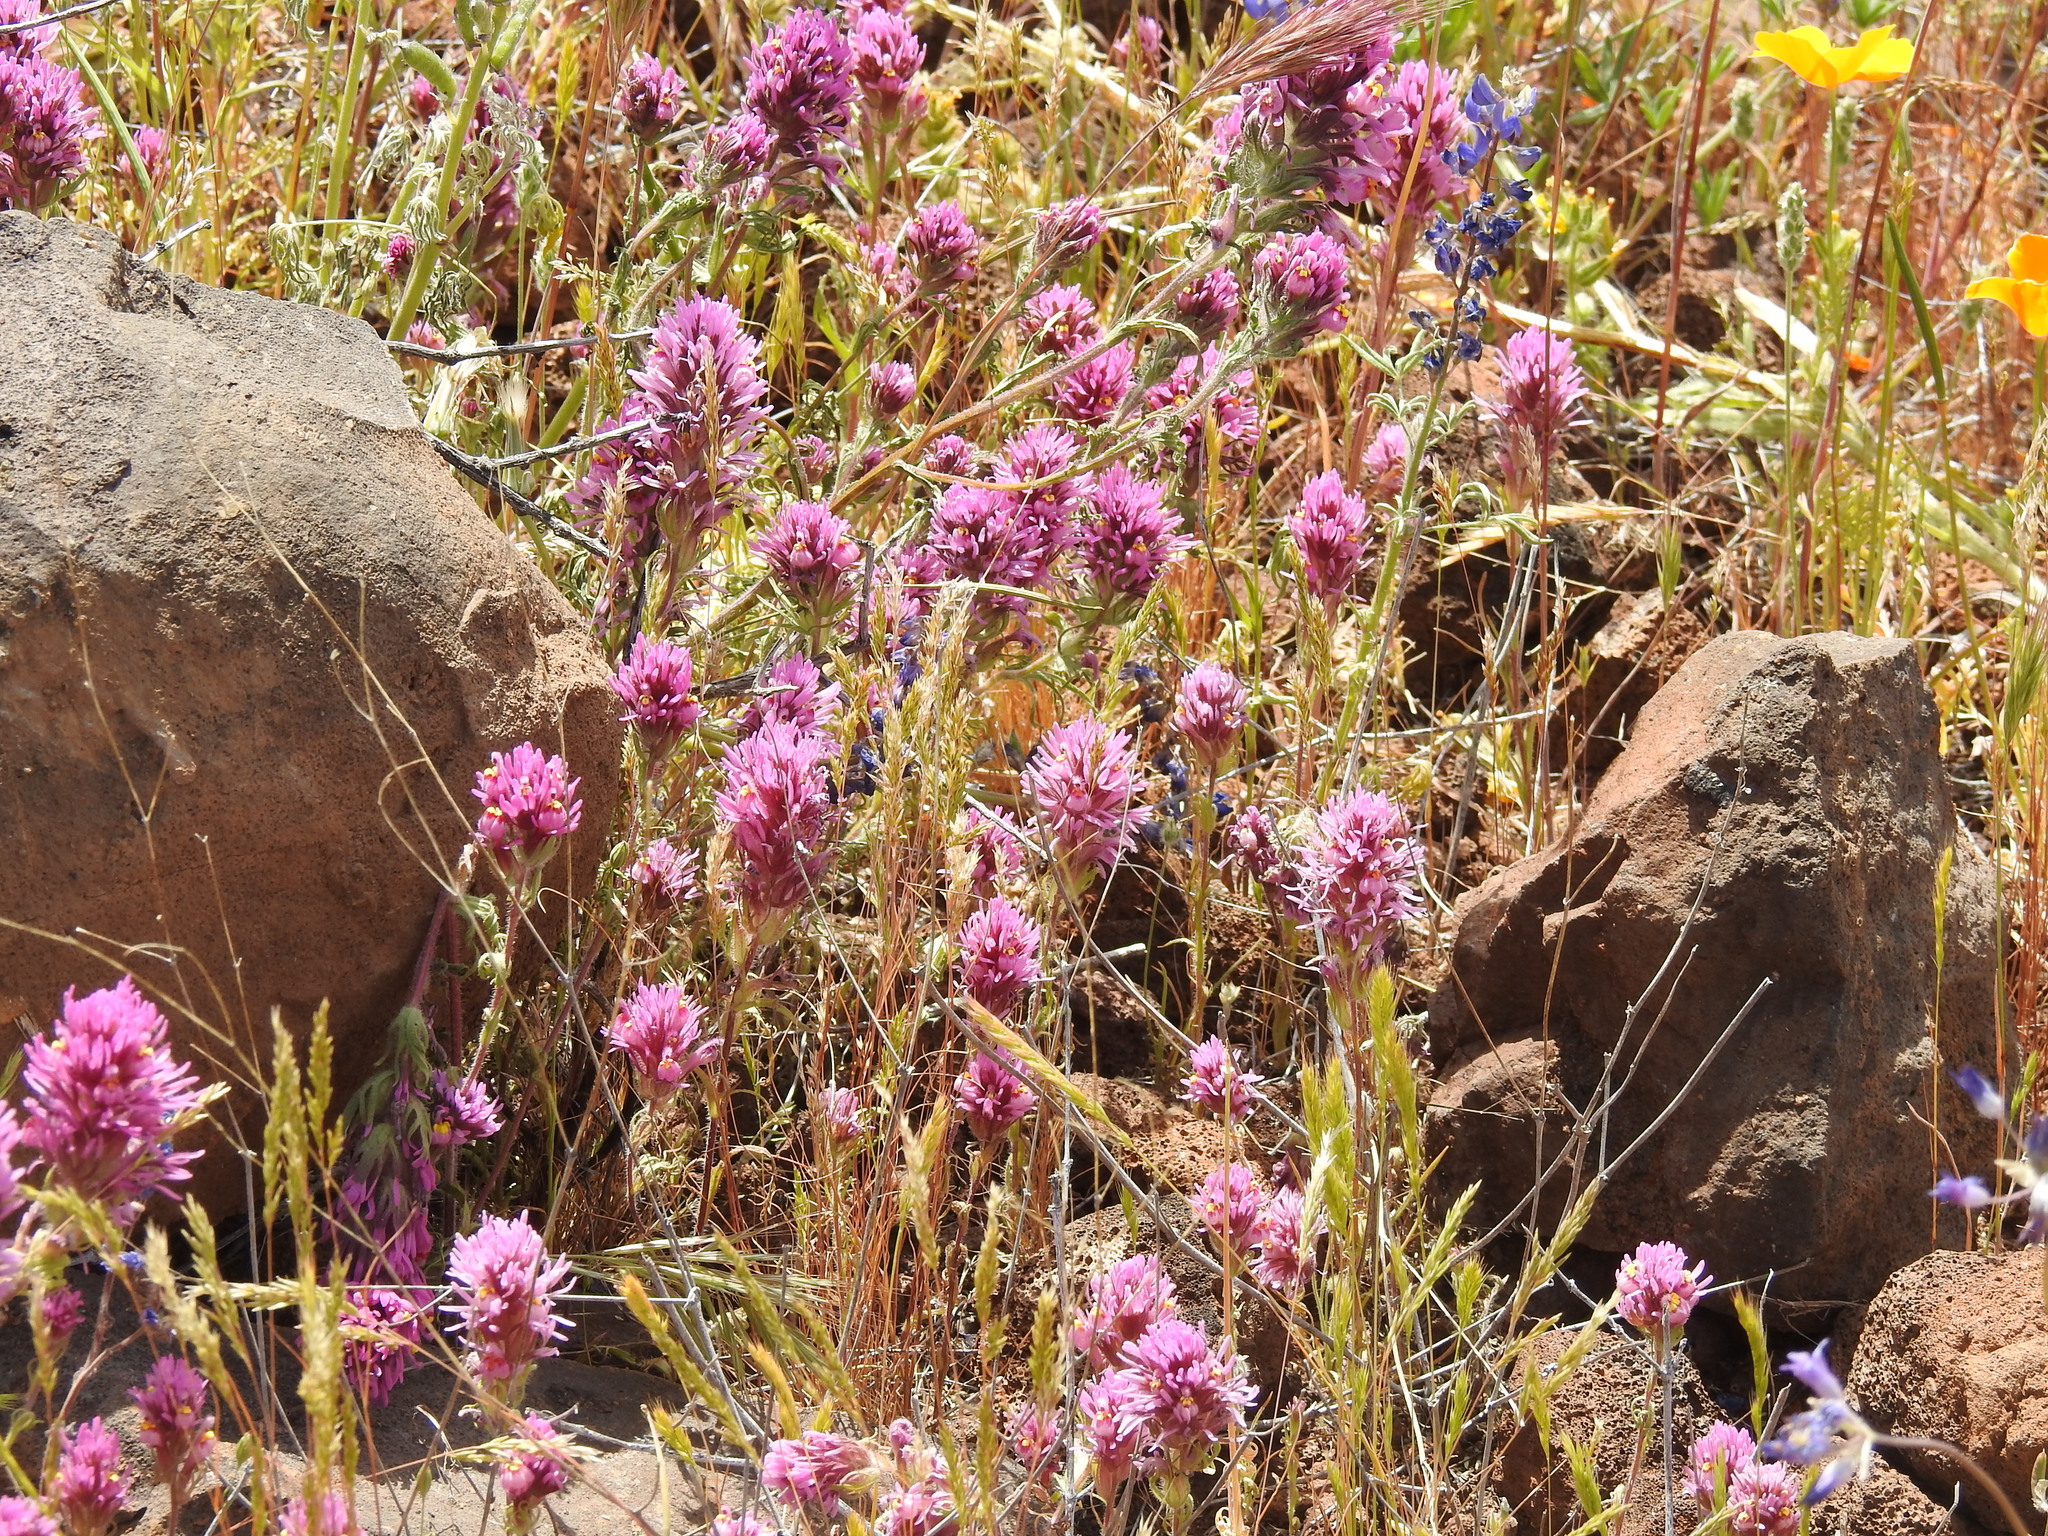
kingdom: Plantae
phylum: Tracheophyta
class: Magnoliopsida
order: Lamiales
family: Orobanchaceae
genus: Castilleja
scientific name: Castilleja exserta
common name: Purple owl-clover
